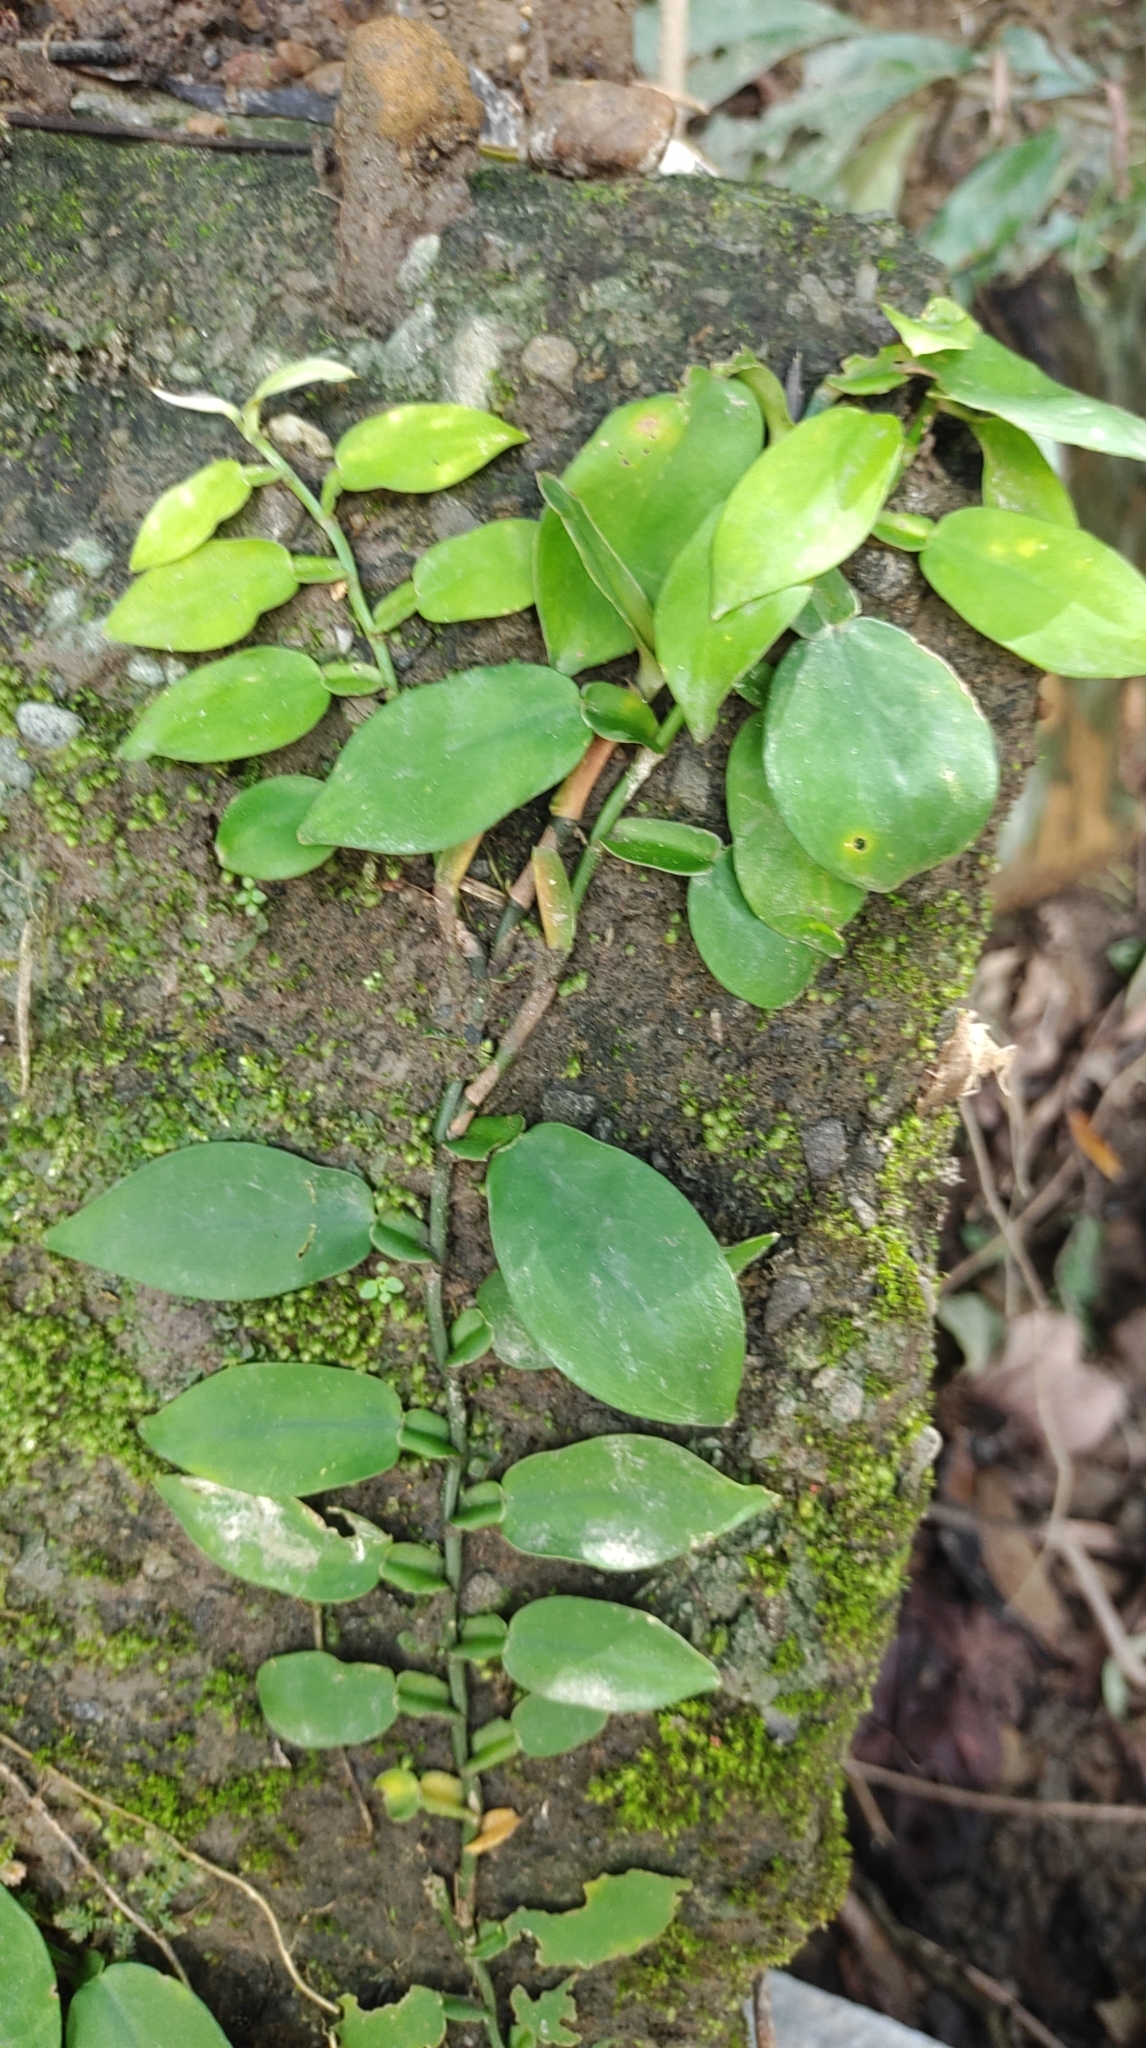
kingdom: Plantae
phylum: Tracheophyta
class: Liliopsida
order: Alismatales
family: Araceae
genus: Pothos
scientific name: Pothos chinensis
